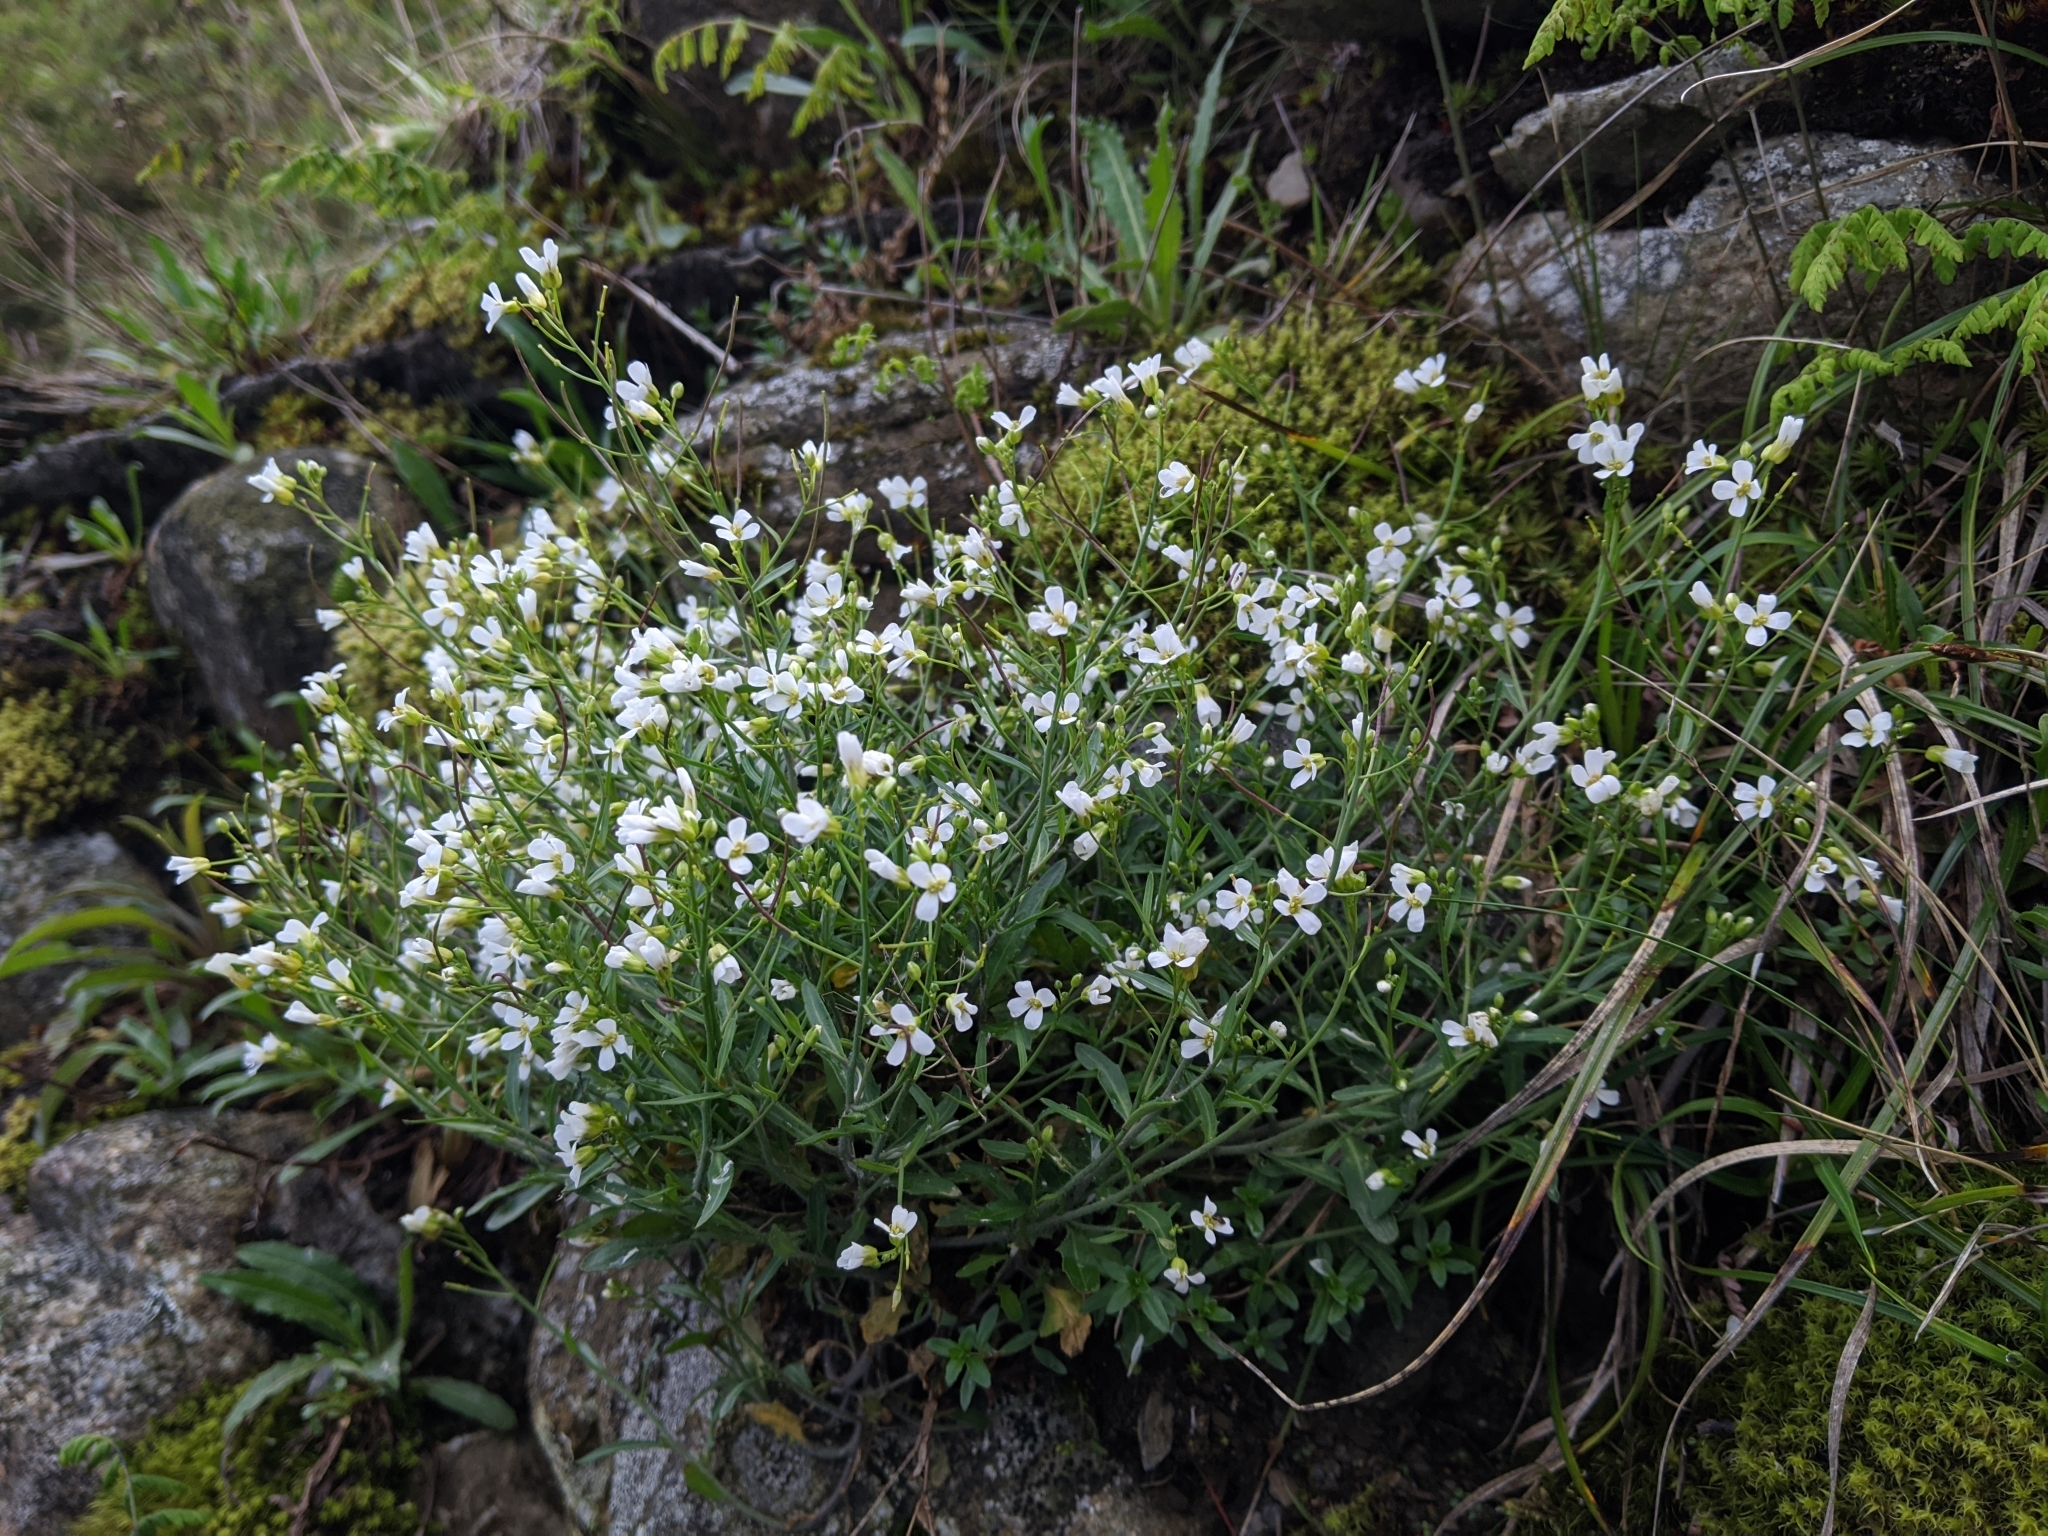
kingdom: Plantae
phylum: Tracheophyta
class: Magnoliopsida
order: Brassicales
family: Brassicaceae
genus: Arabidopsis
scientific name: Arabidopsis lyrata
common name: Lyrate rockcress
